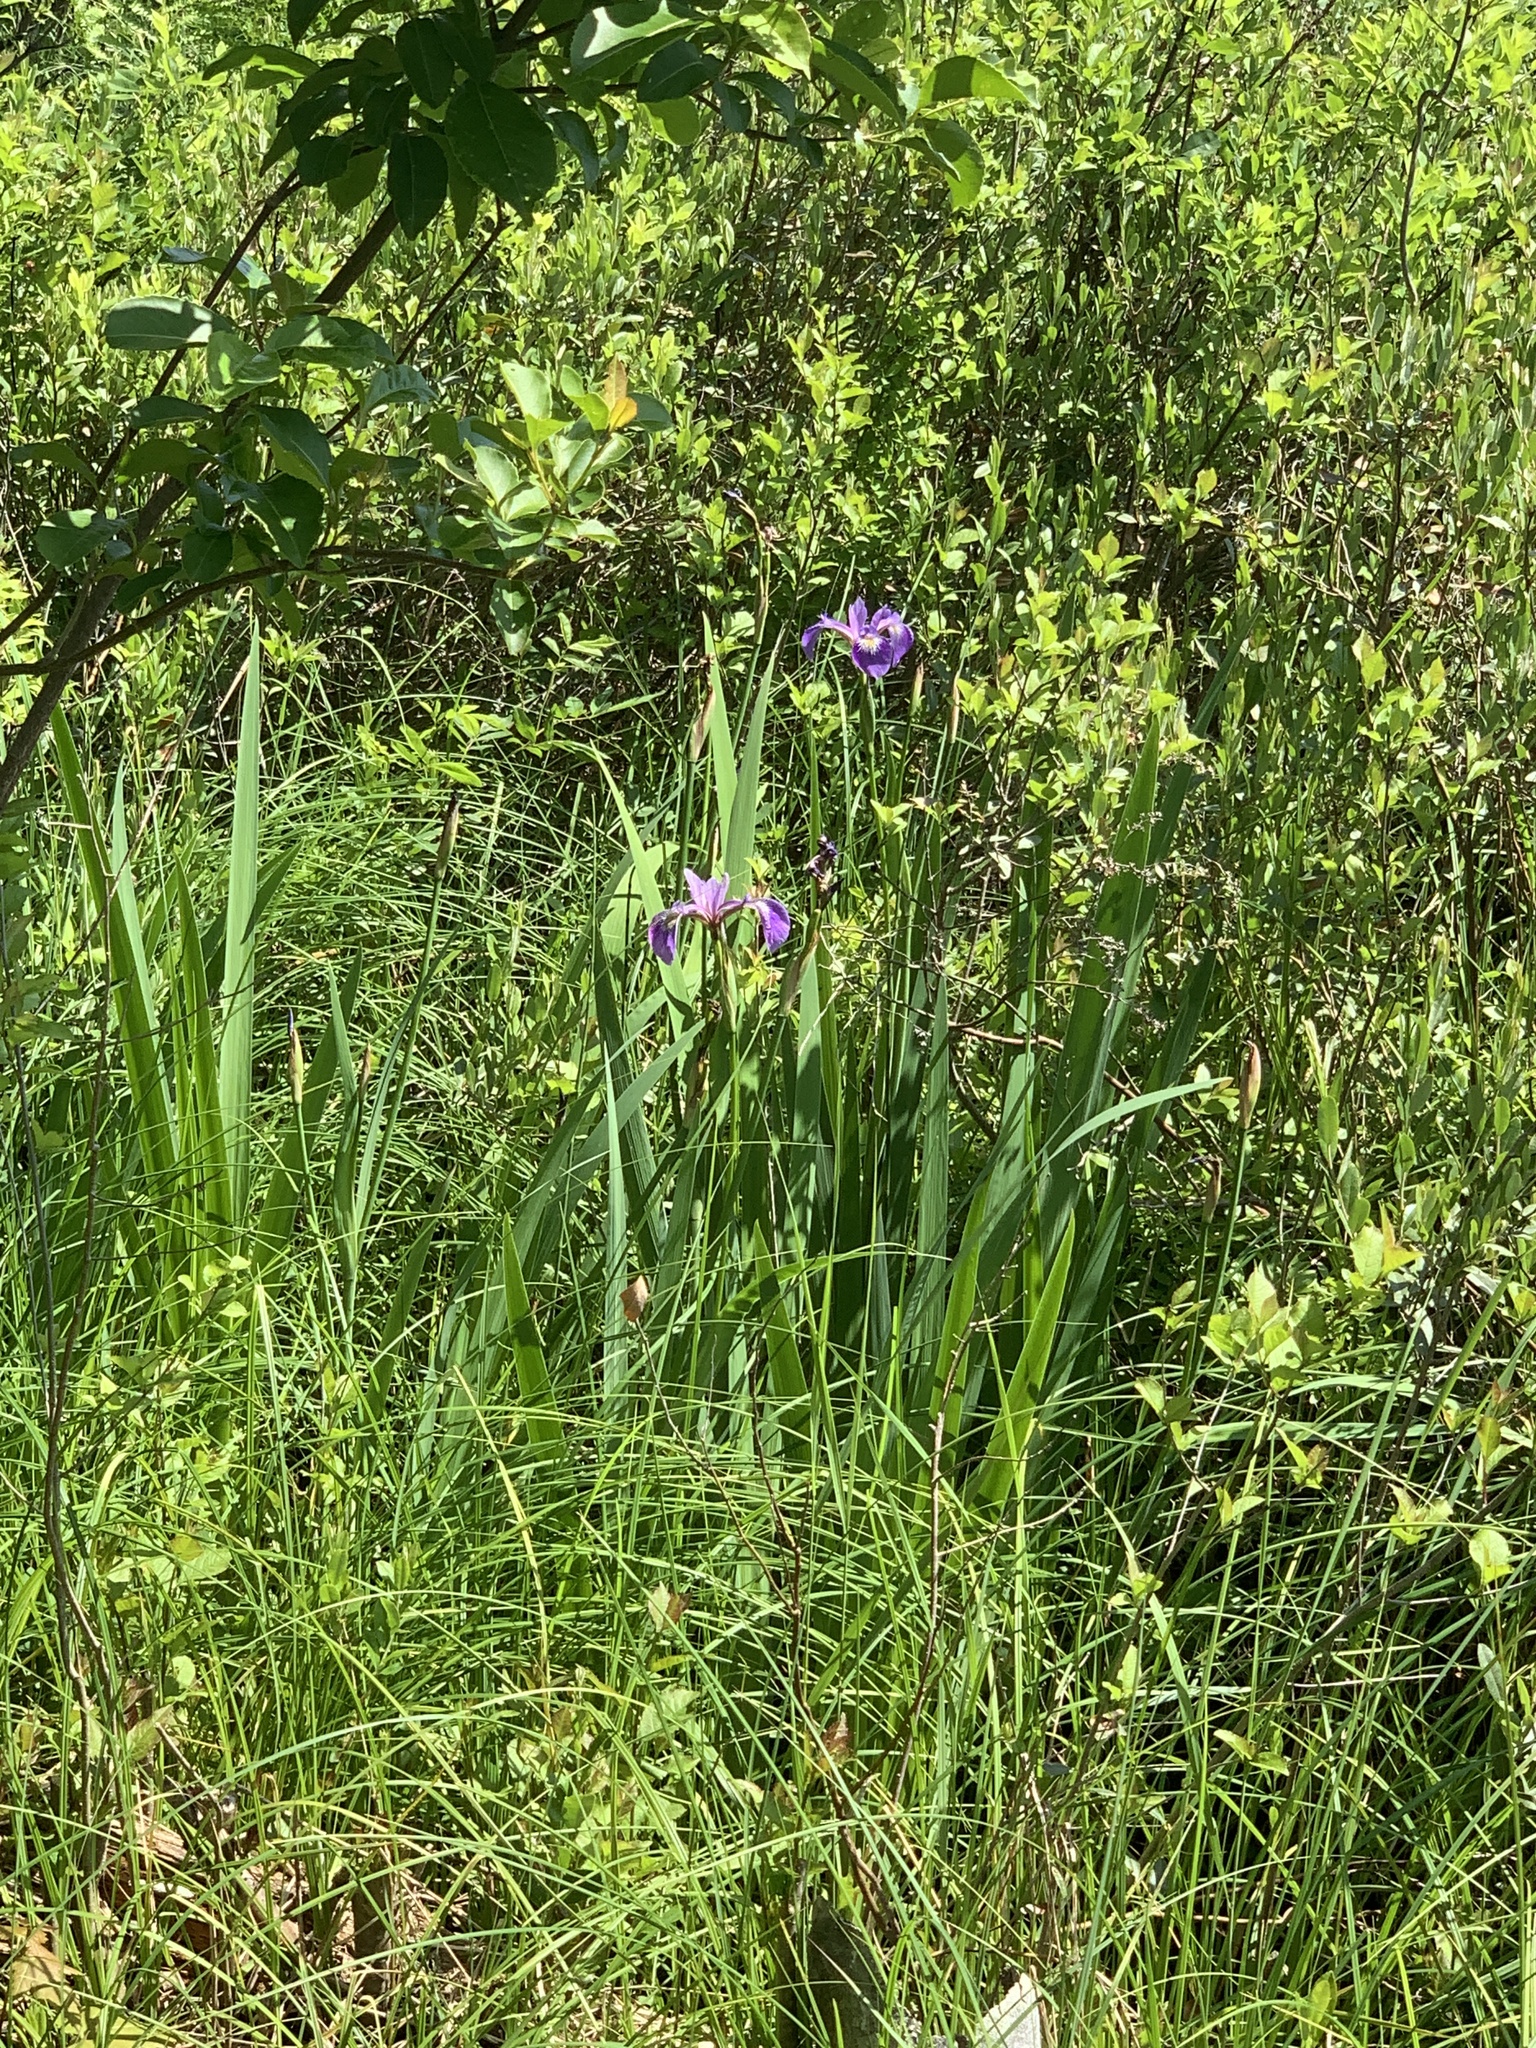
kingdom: Plantae
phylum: Tracheophyta
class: Liliopsida
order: Asparagales
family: Iridaceae
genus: Iris
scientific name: Iris versicolor
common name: Purple iris
